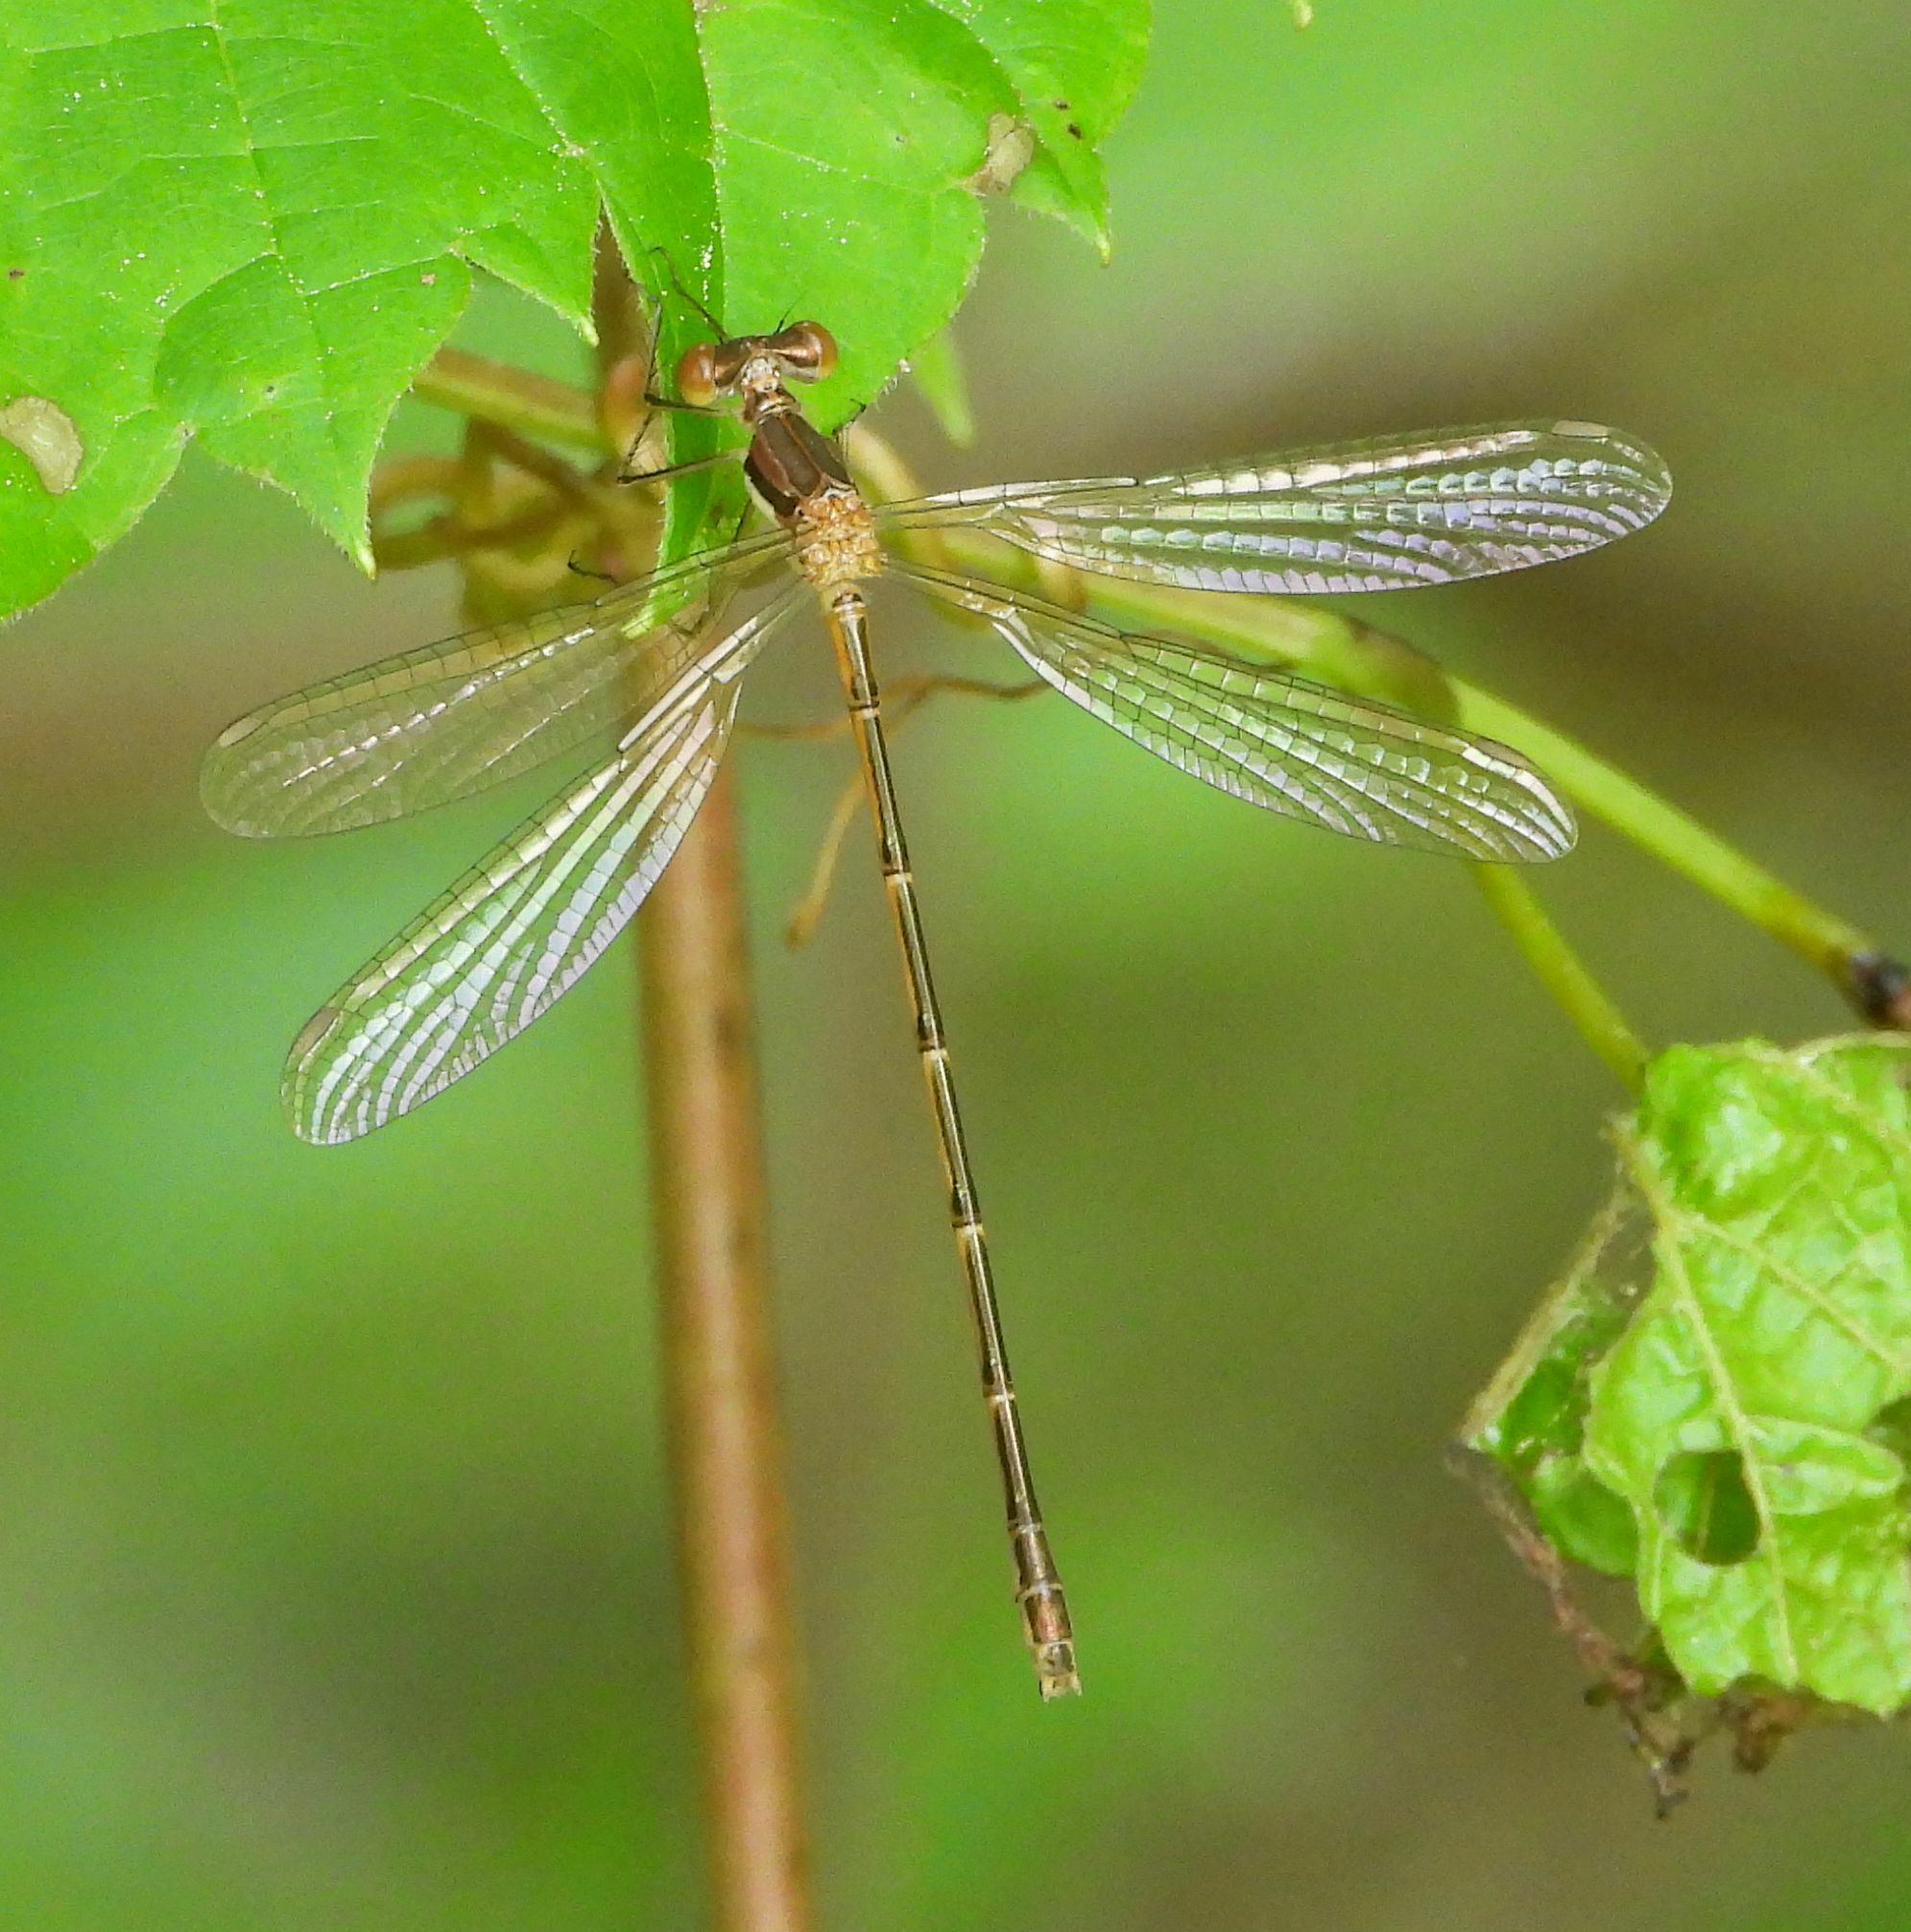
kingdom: Animalia
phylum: Arthropoda
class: Insecta
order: Odonata
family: Lestidae
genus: Lestes
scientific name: Lestes rectangularis
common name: Slender spreadwing
